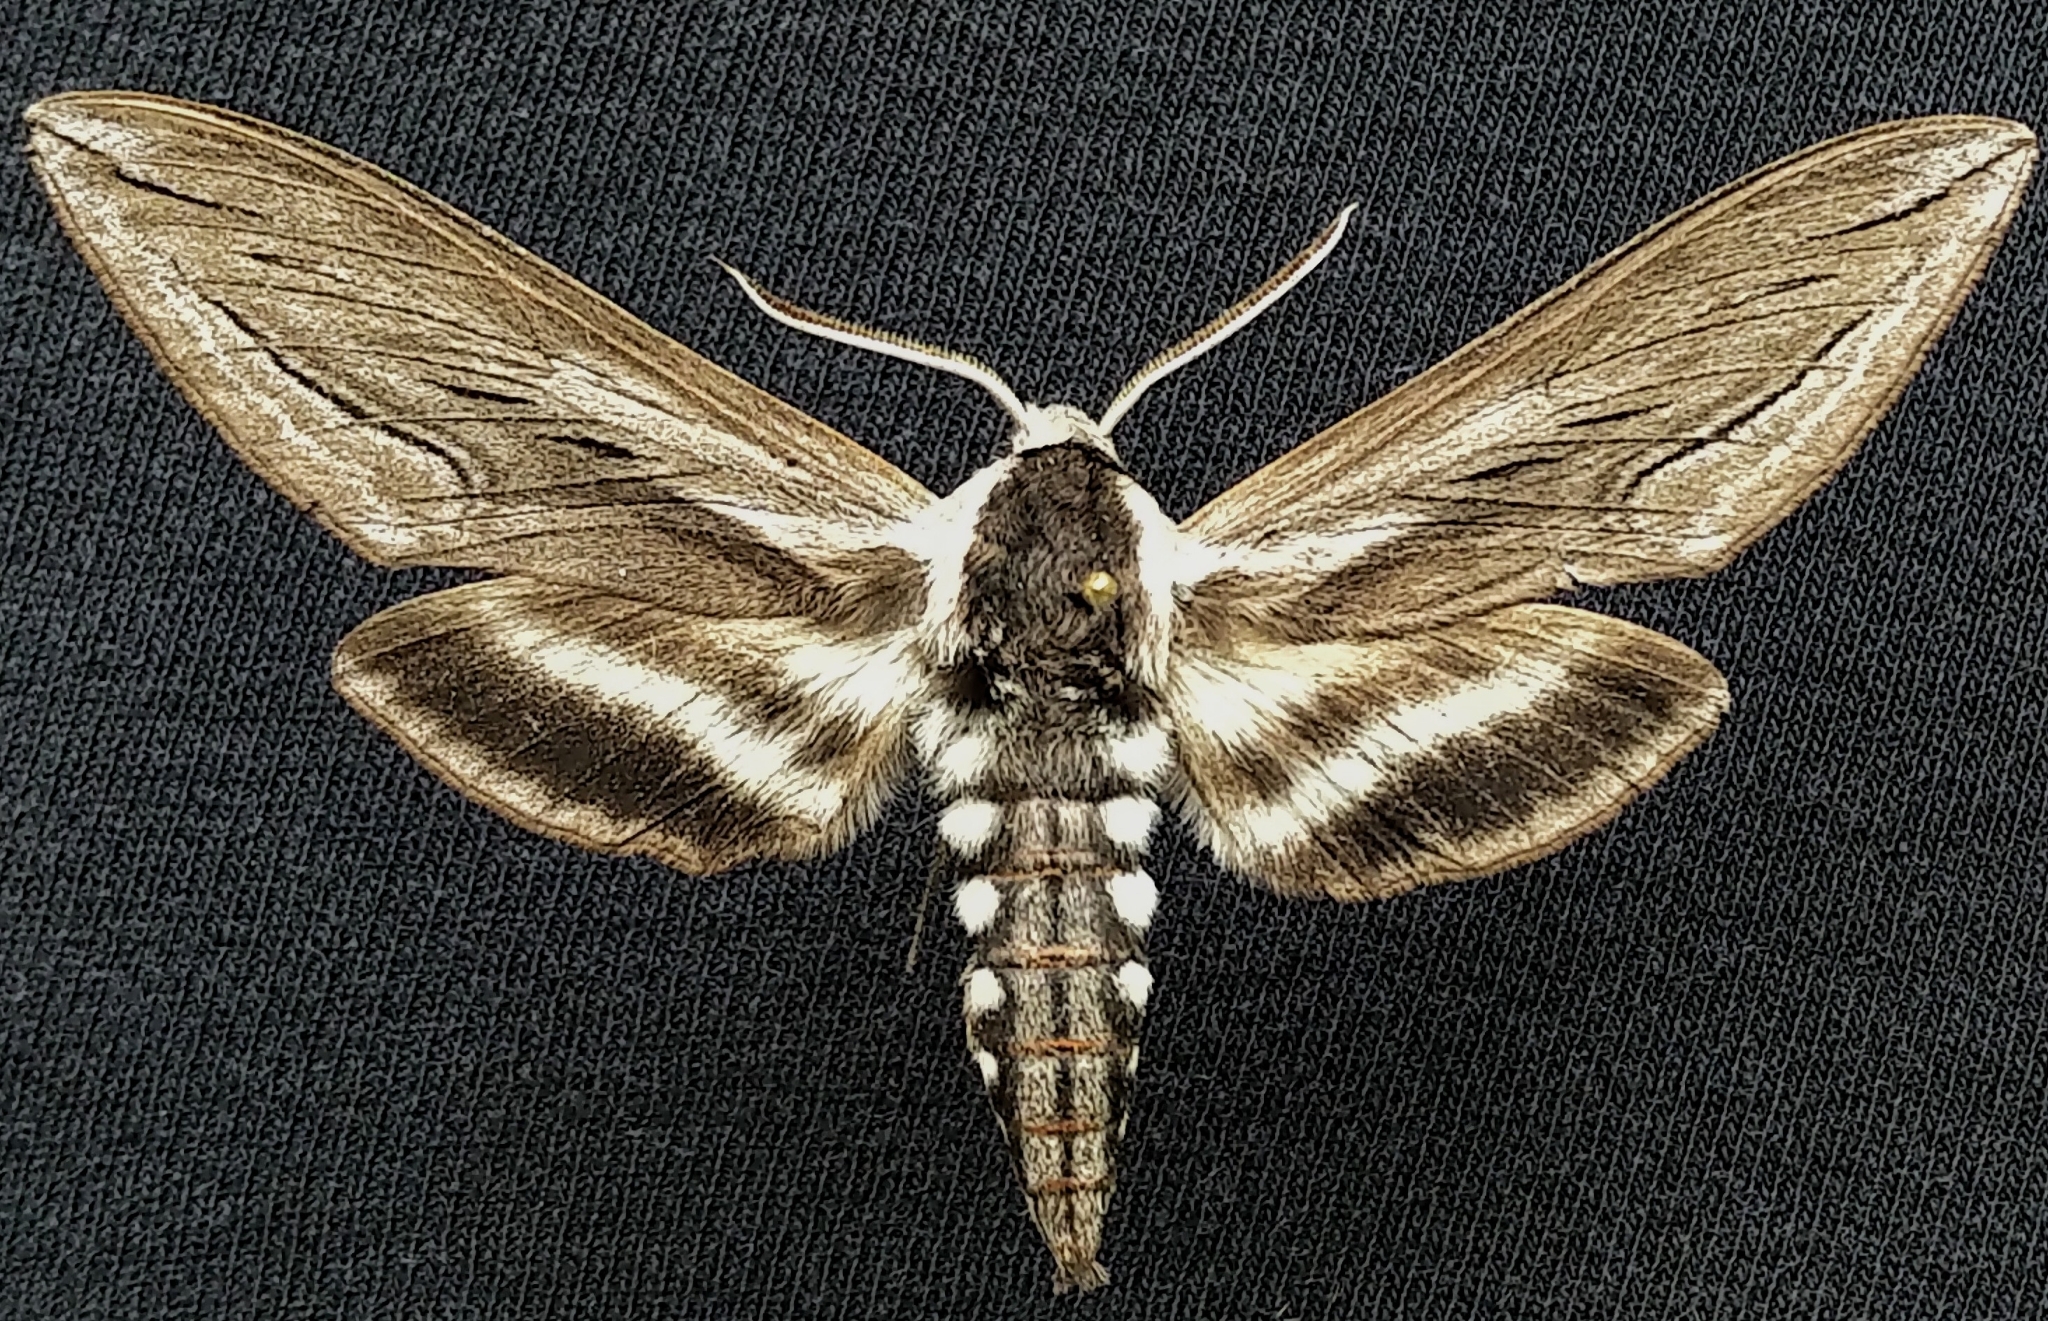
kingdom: Animalia
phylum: Arthropoda
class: Insecta
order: Lepidoptera
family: Sphingidae
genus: Sphinx
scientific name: Sphinx vashti
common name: Snowberry sphinx
